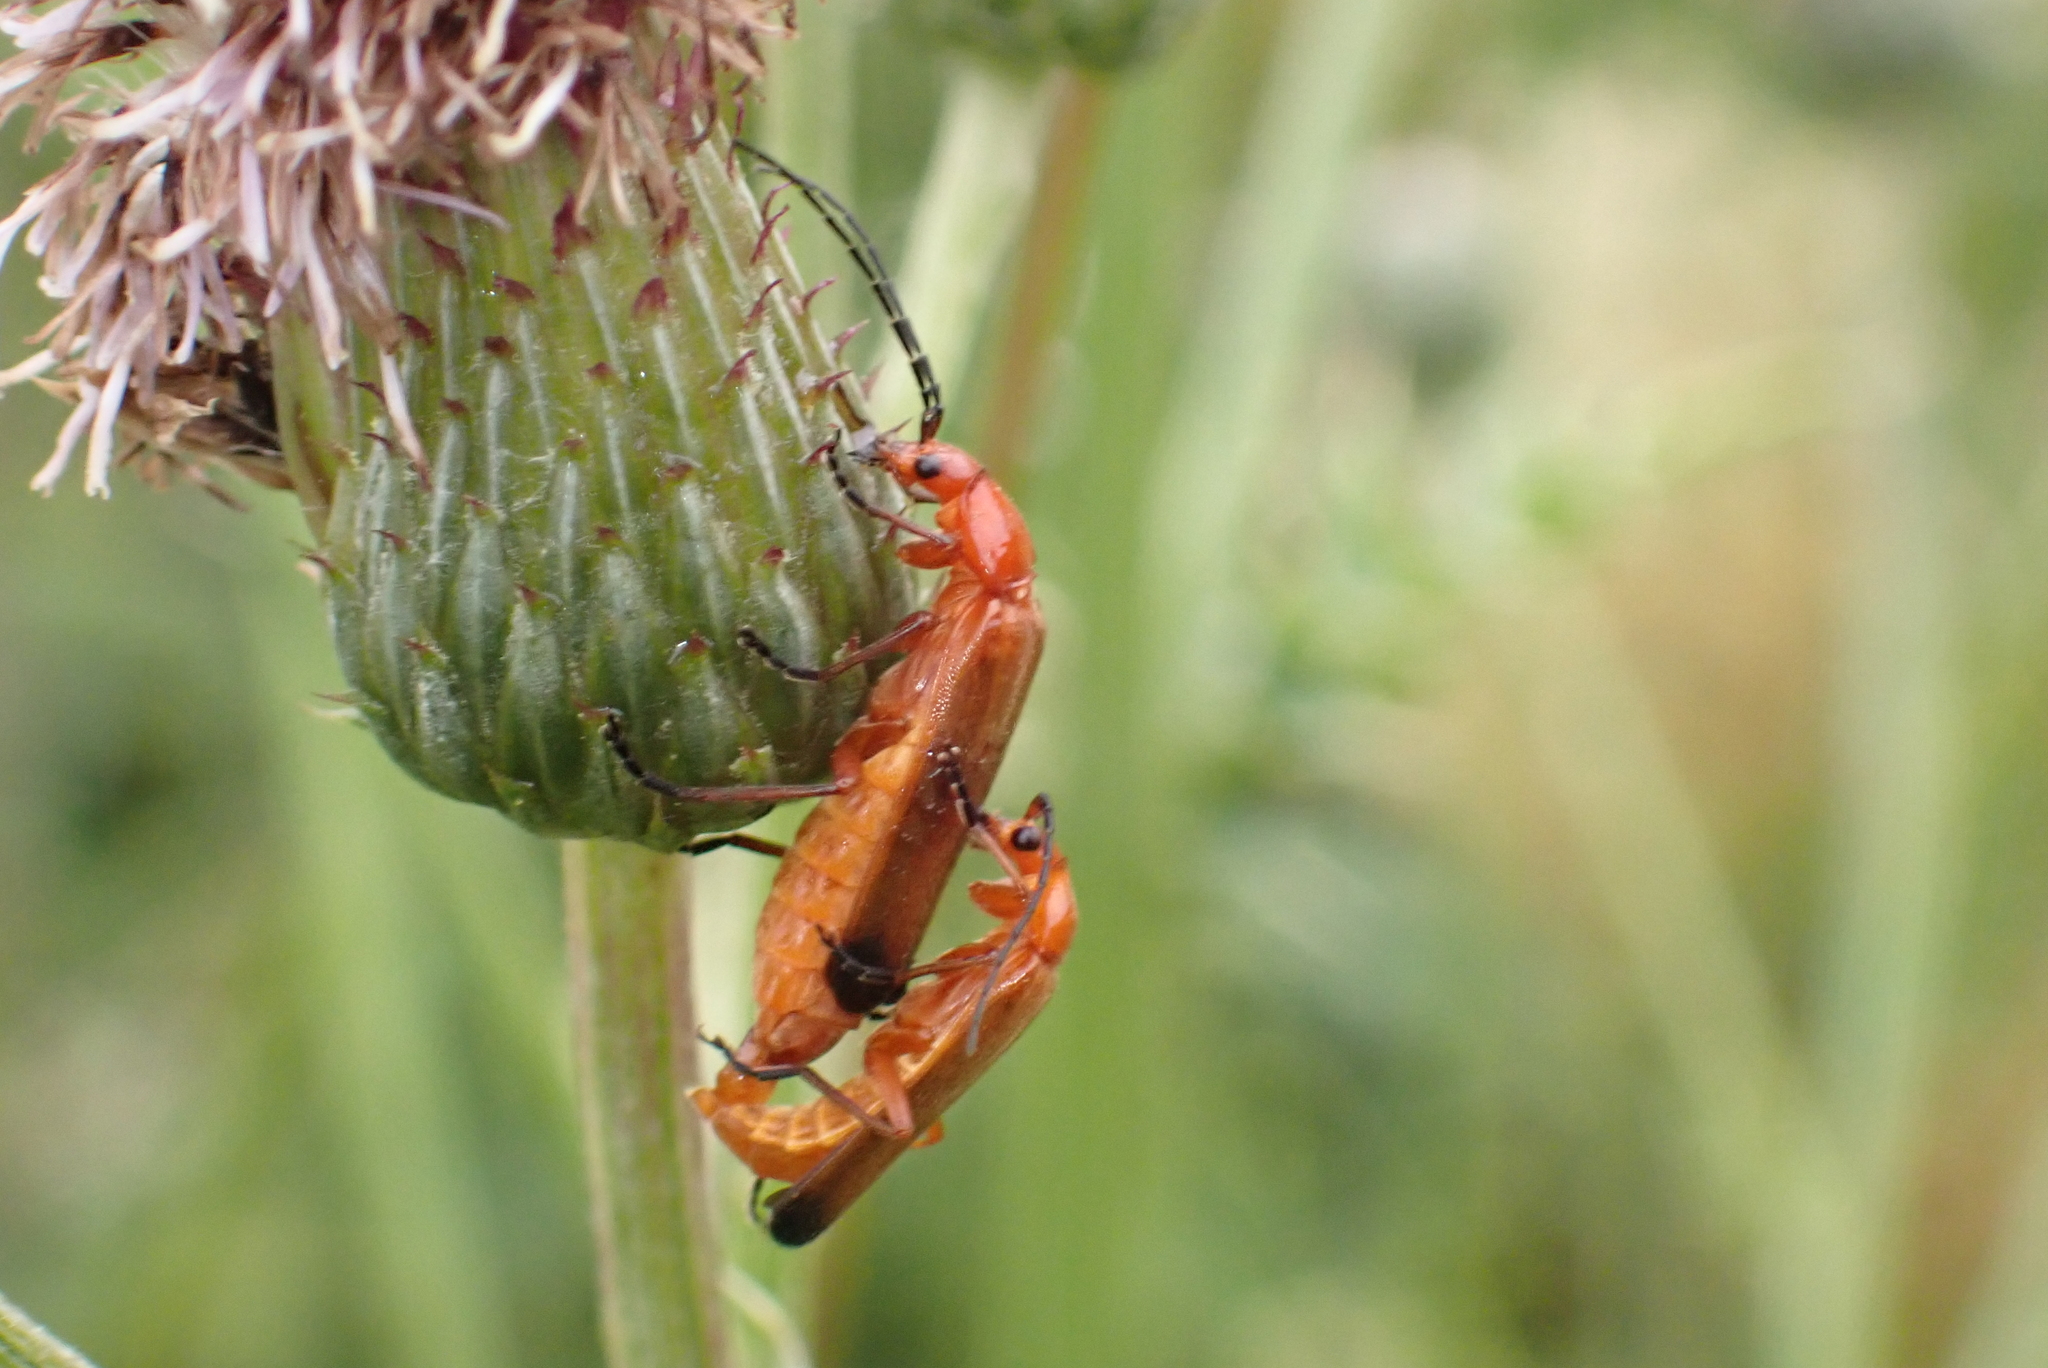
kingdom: Animalia
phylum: Arthropoda
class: Insecta
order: Coleoptera
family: Cantharidae
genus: Rhagonycha
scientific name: Rhagonycha fulva
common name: Common red soldier beetle
